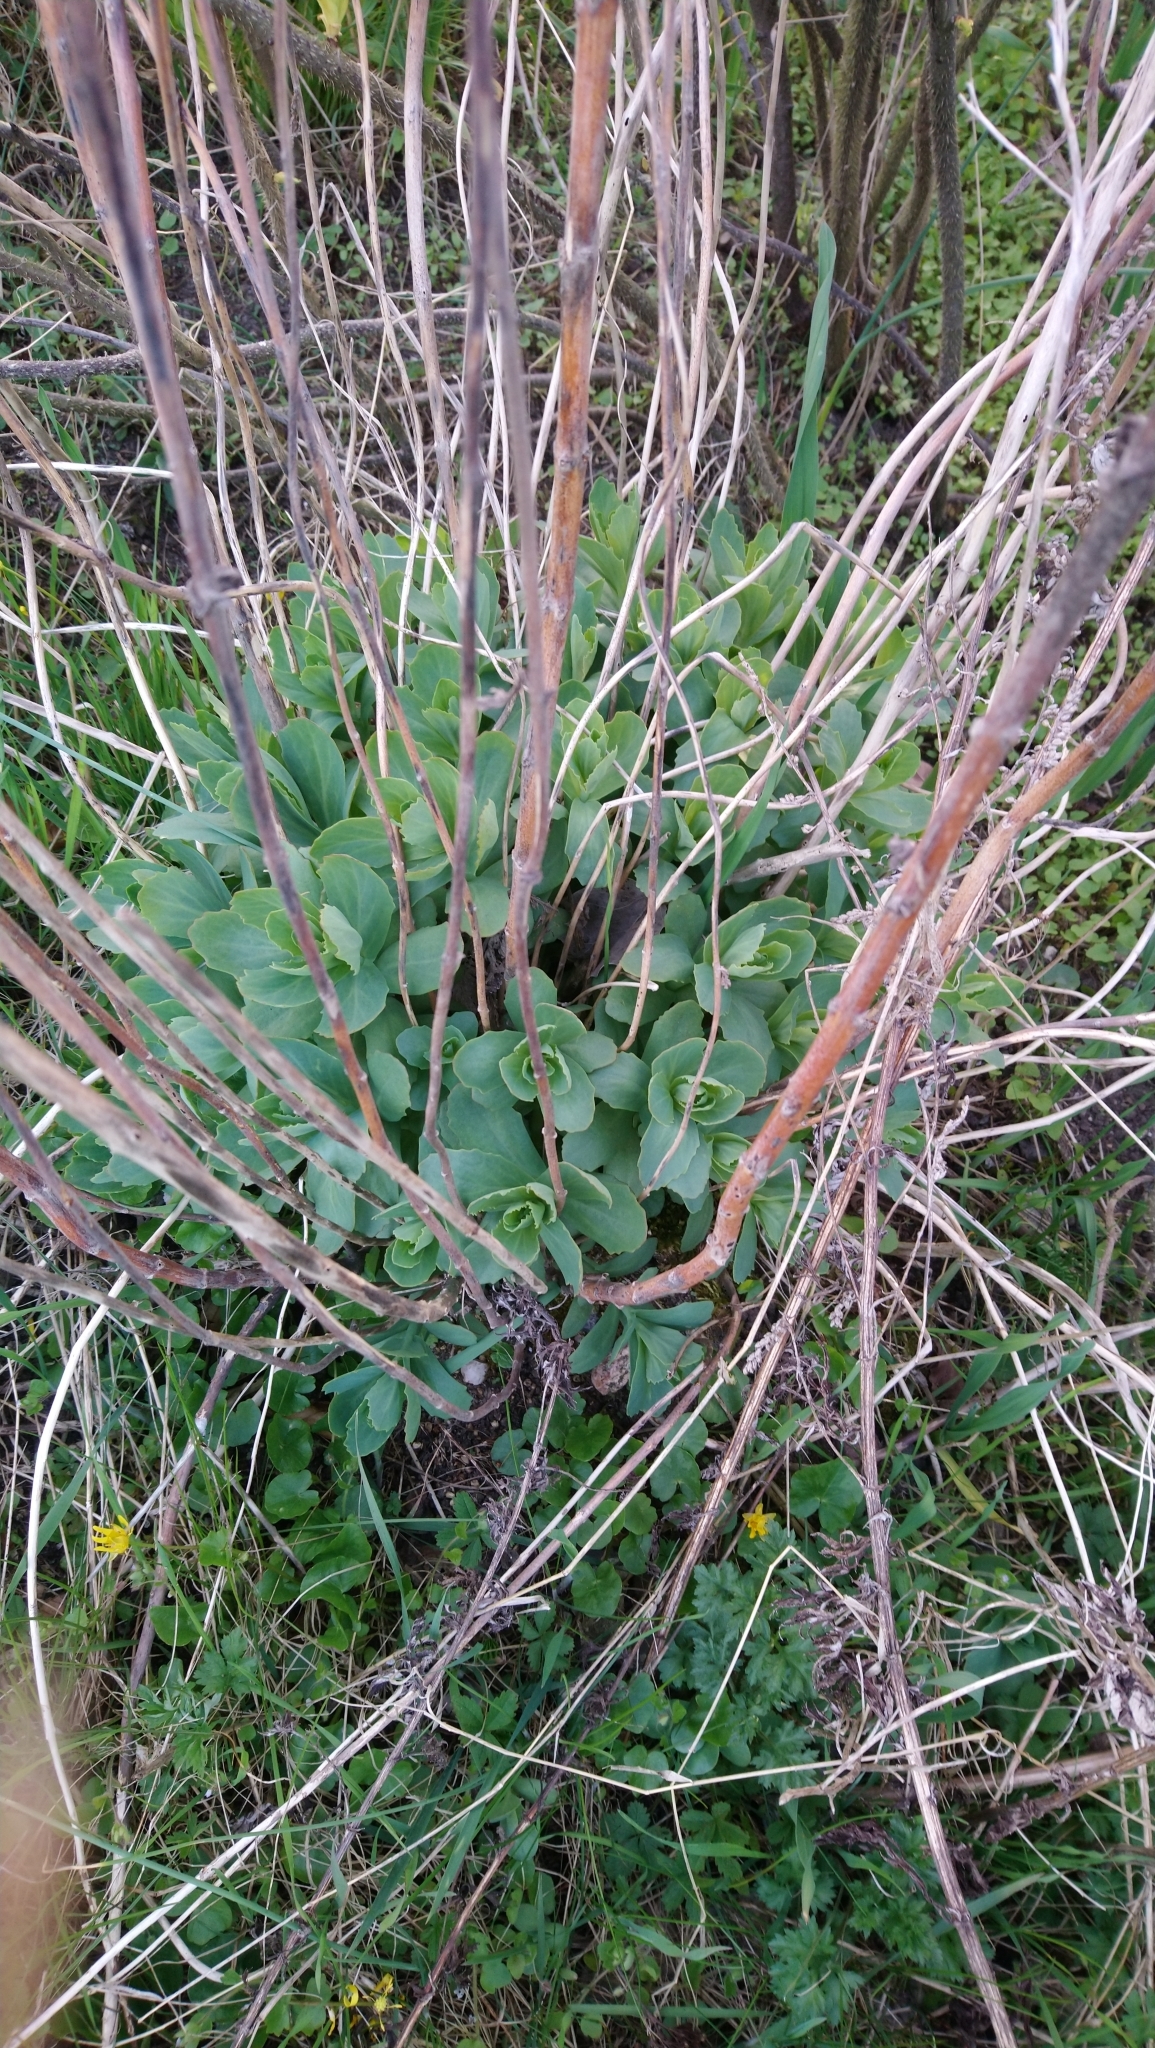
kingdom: Plantae
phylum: Tracheophyta
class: Magnoliopsida
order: Saxifragales
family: Crassulaceae
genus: Hylotelephium
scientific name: Hylotelephium telephium
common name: Live-forever
